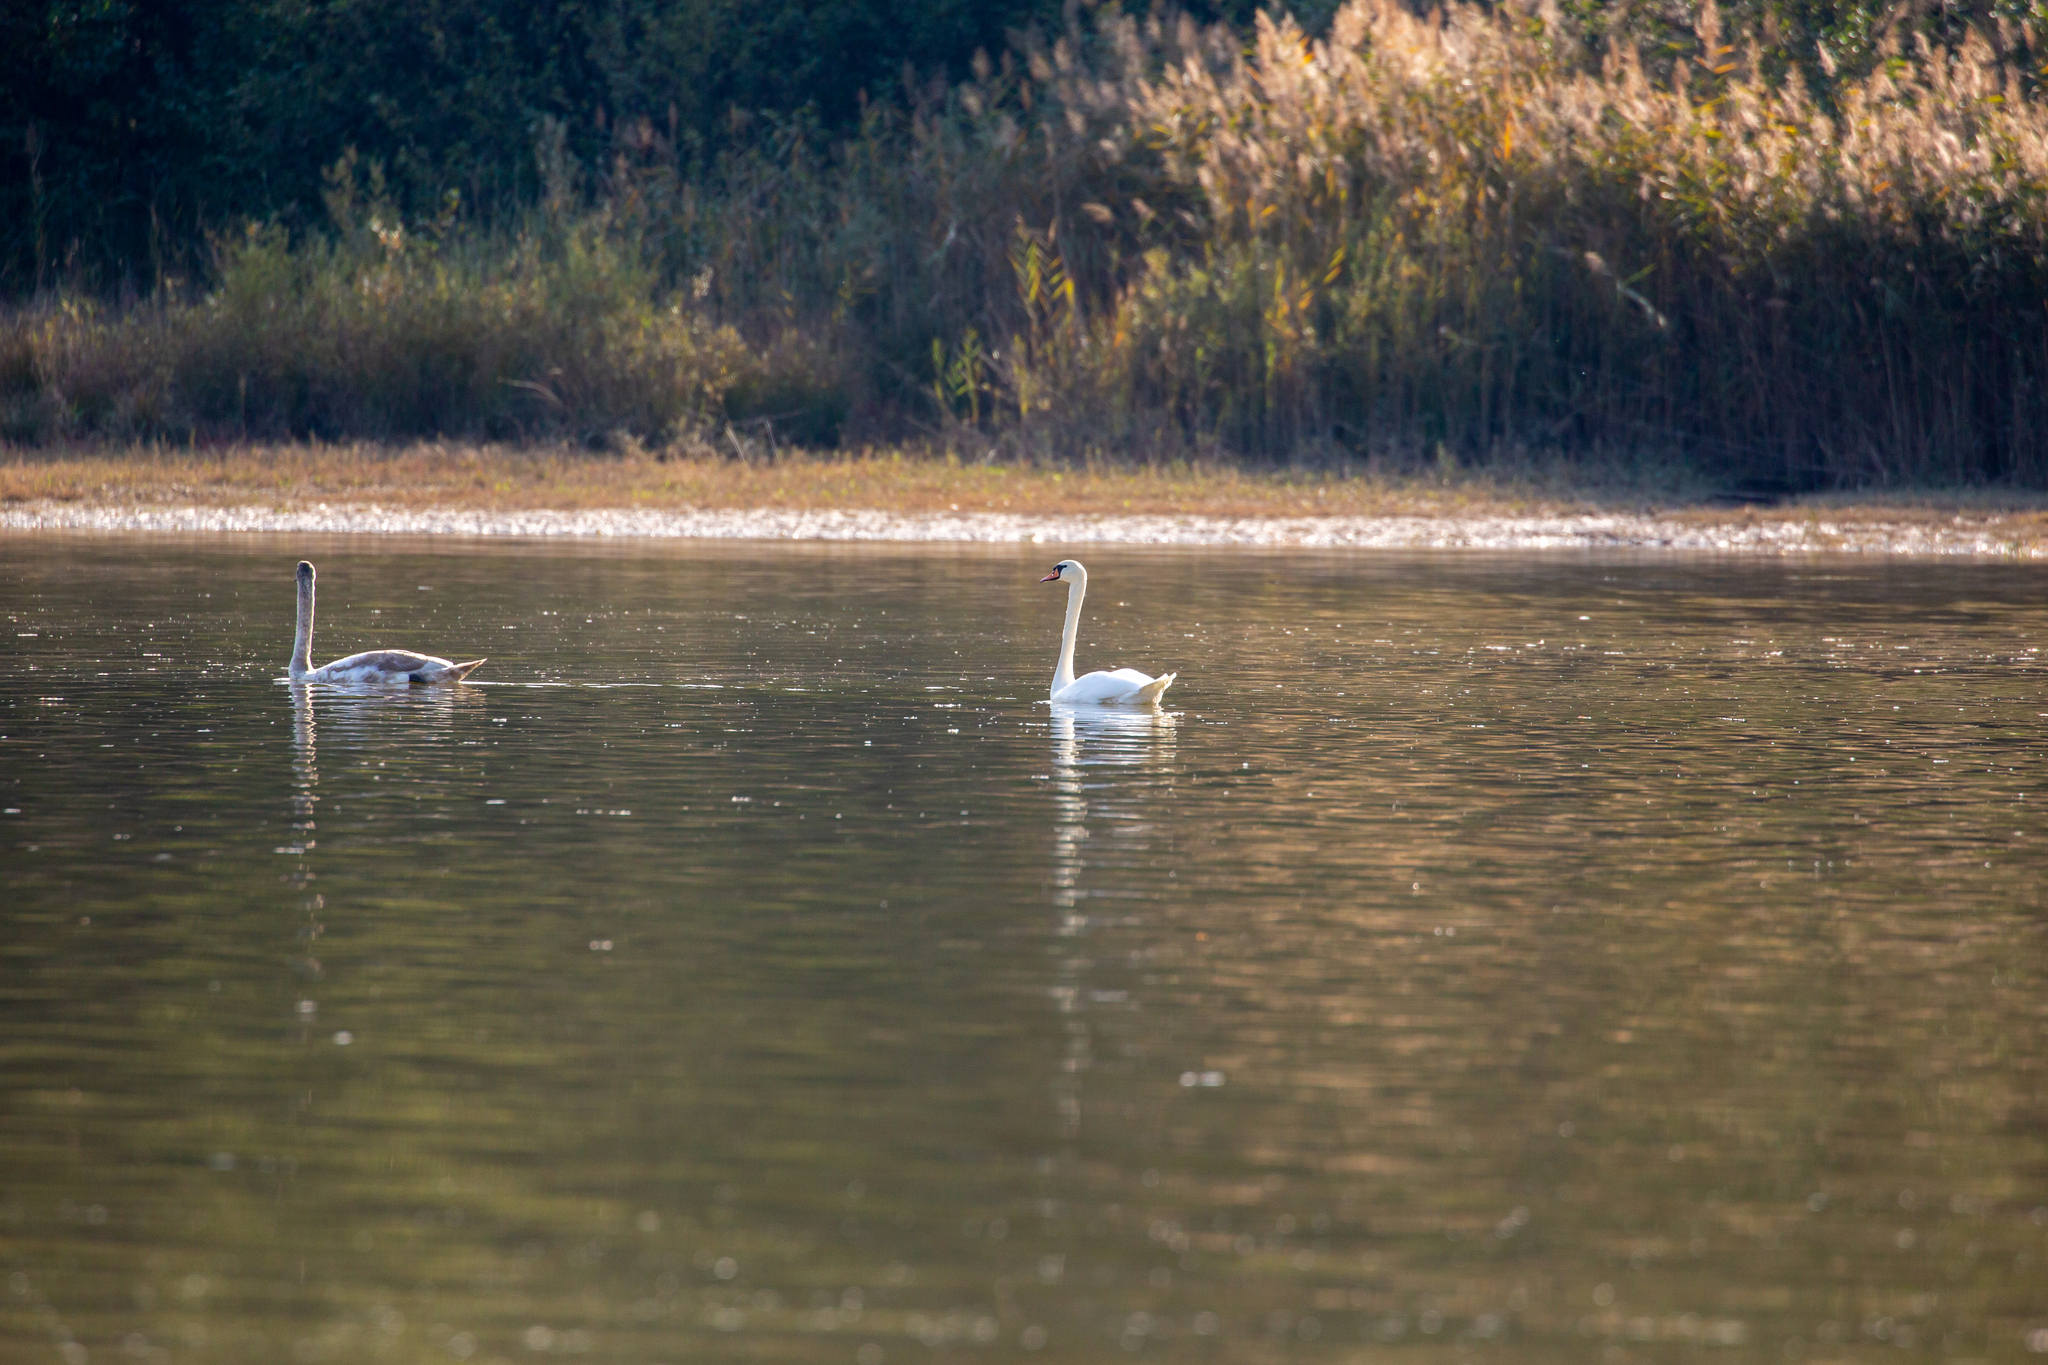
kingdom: Animalia
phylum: Chordata
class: Aves
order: Anseriformes
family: Anatidae
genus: Cygnus
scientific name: Cygnus olor
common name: Mute swan
